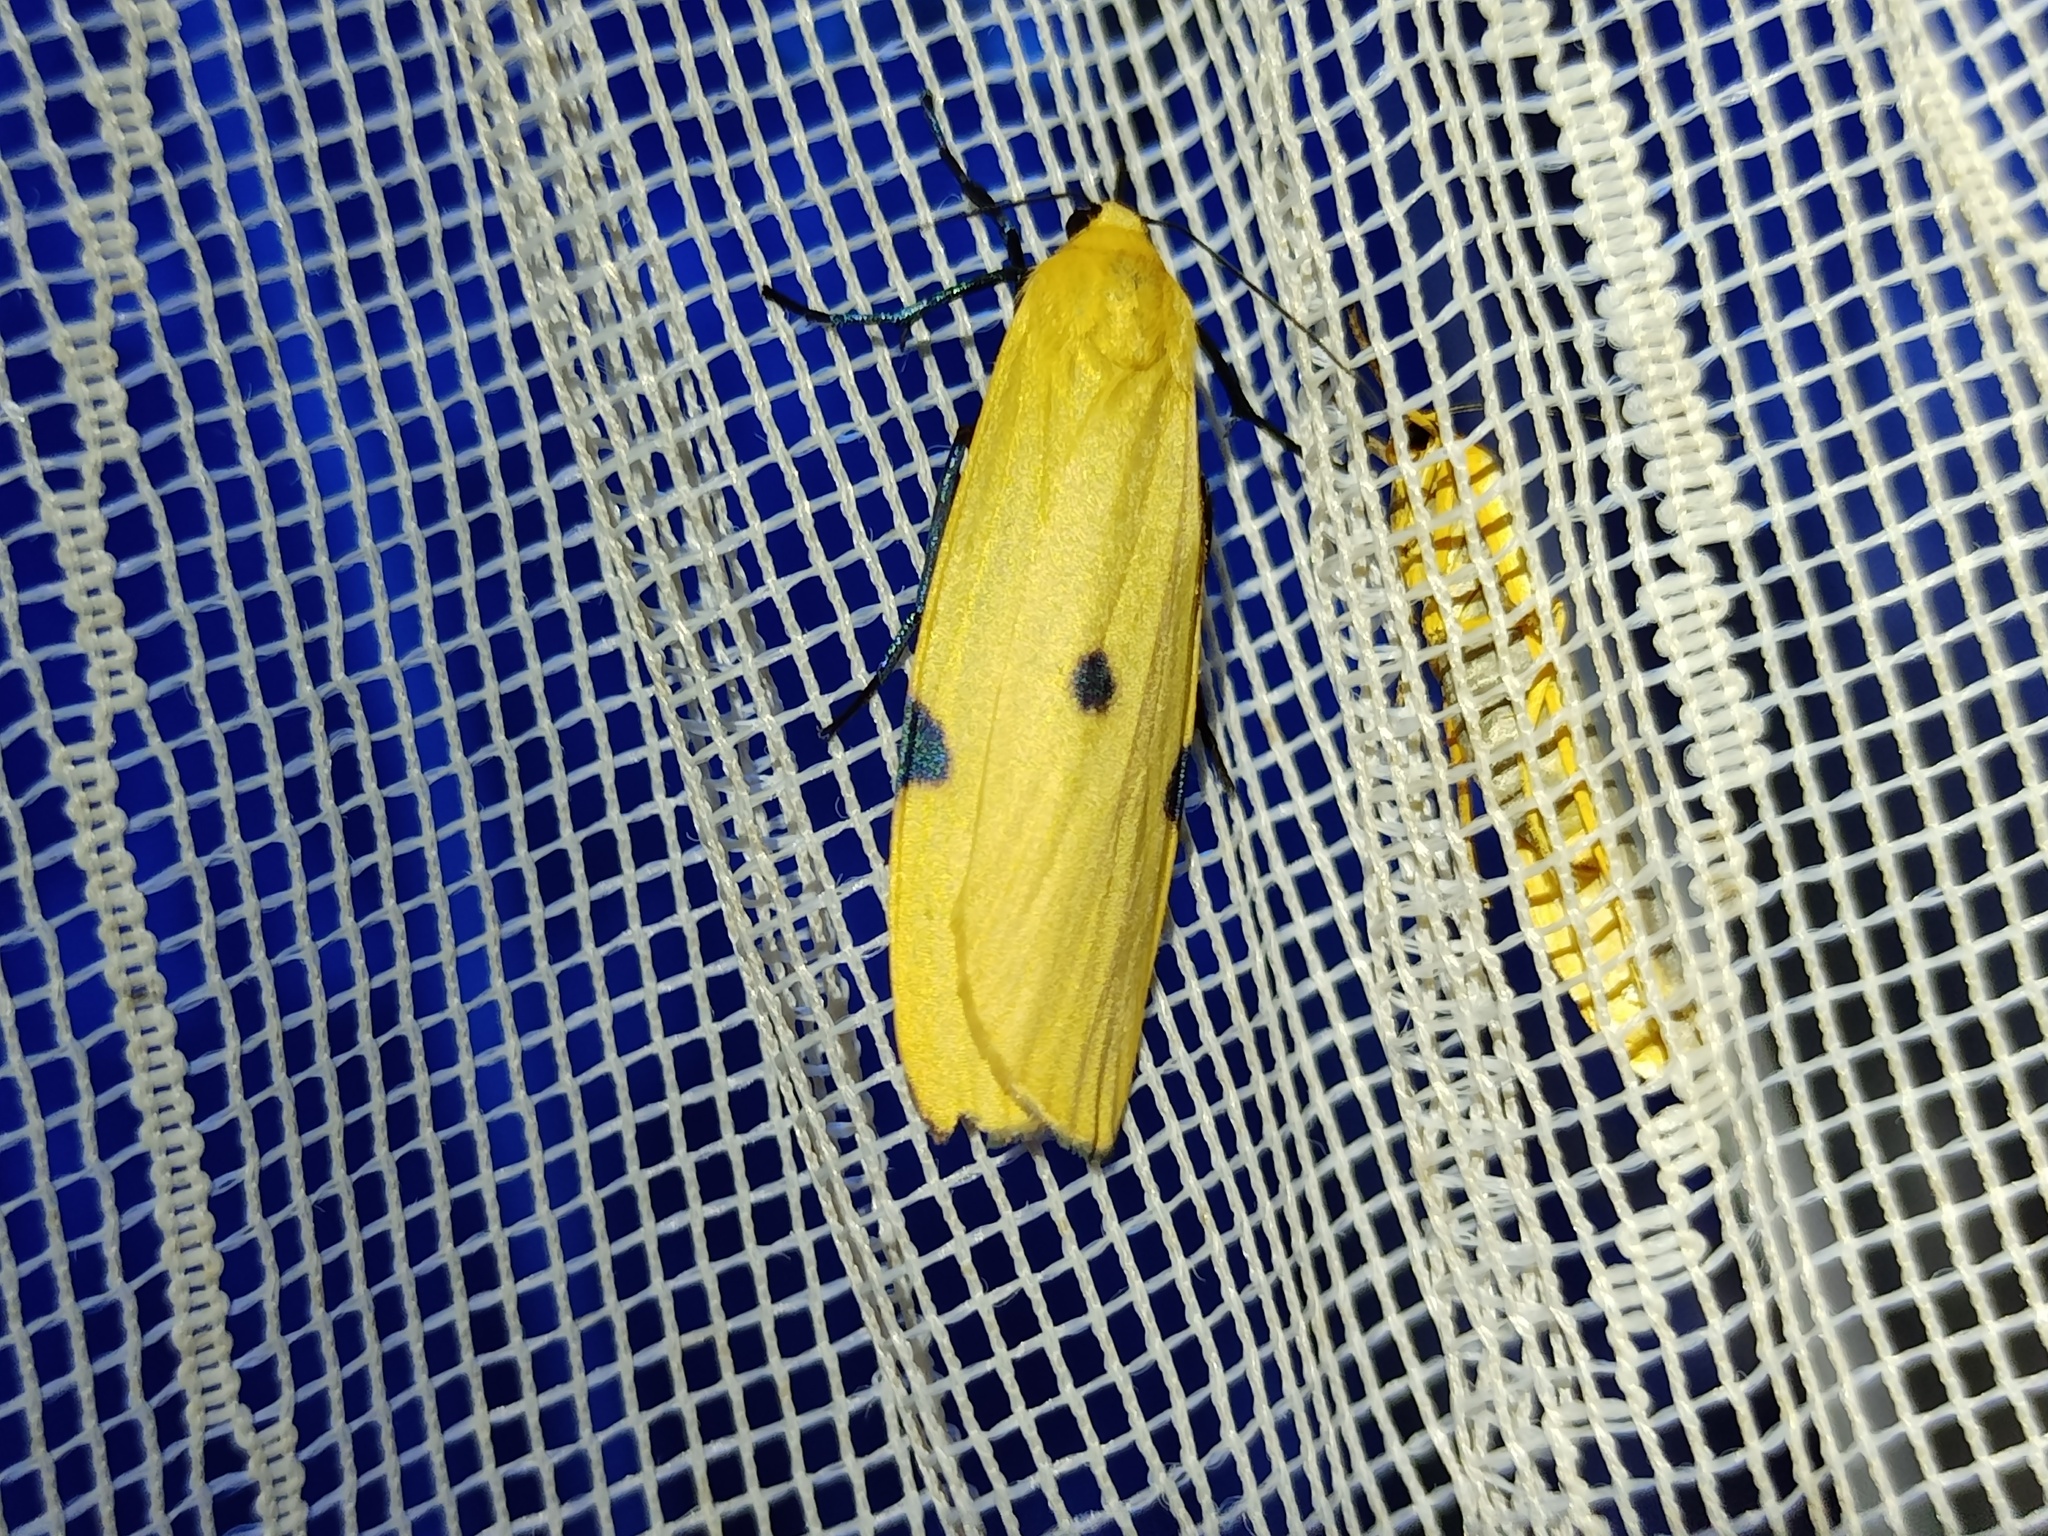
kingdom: Animalia
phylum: Arthropoda
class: Insecta
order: Lepidoptera
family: Erebidae
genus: Lithosia
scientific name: Lithosia quadra
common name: Four-spotted footman
